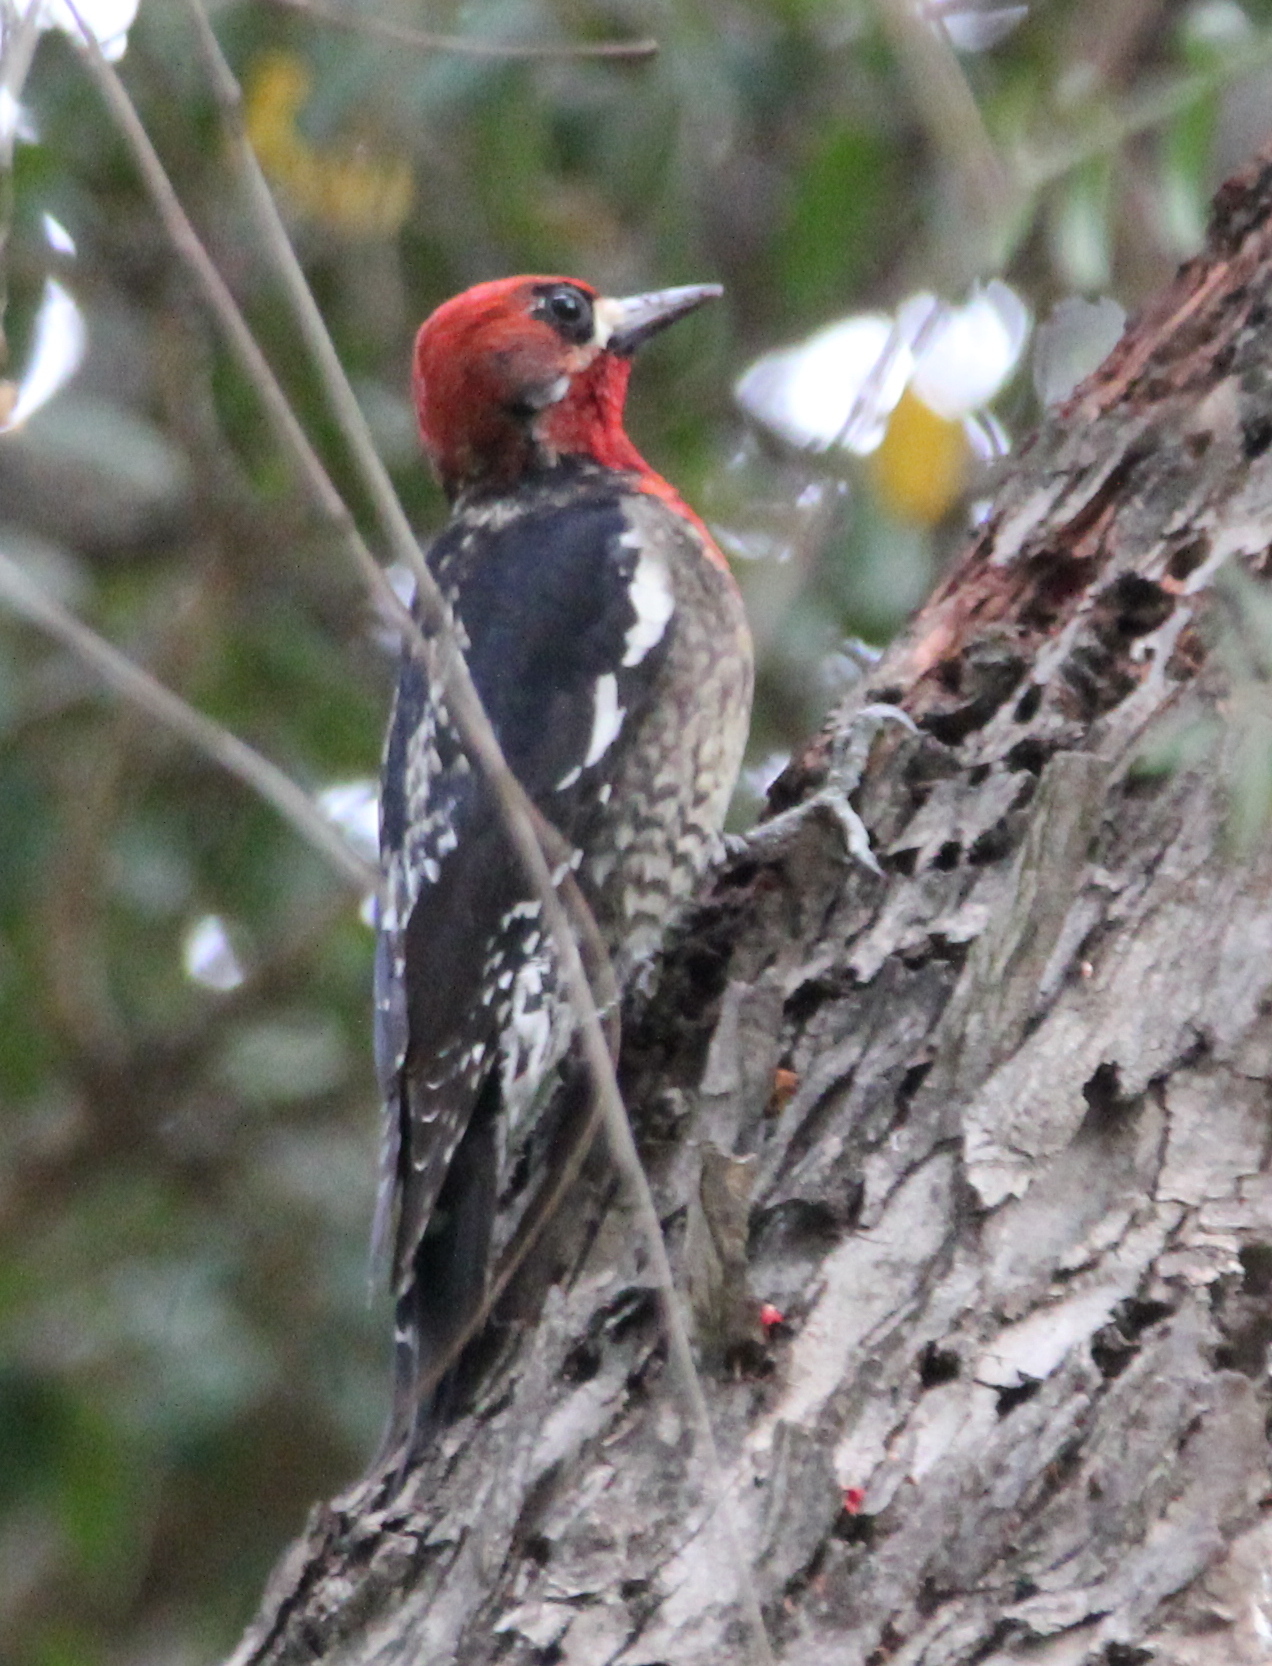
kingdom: Animalia
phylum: Chordata
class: Aves
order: Piciformes
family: Picidae
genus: Sphyrapicus
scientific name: Sphyrapicus ruber
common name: Red-breasted sapsucker
